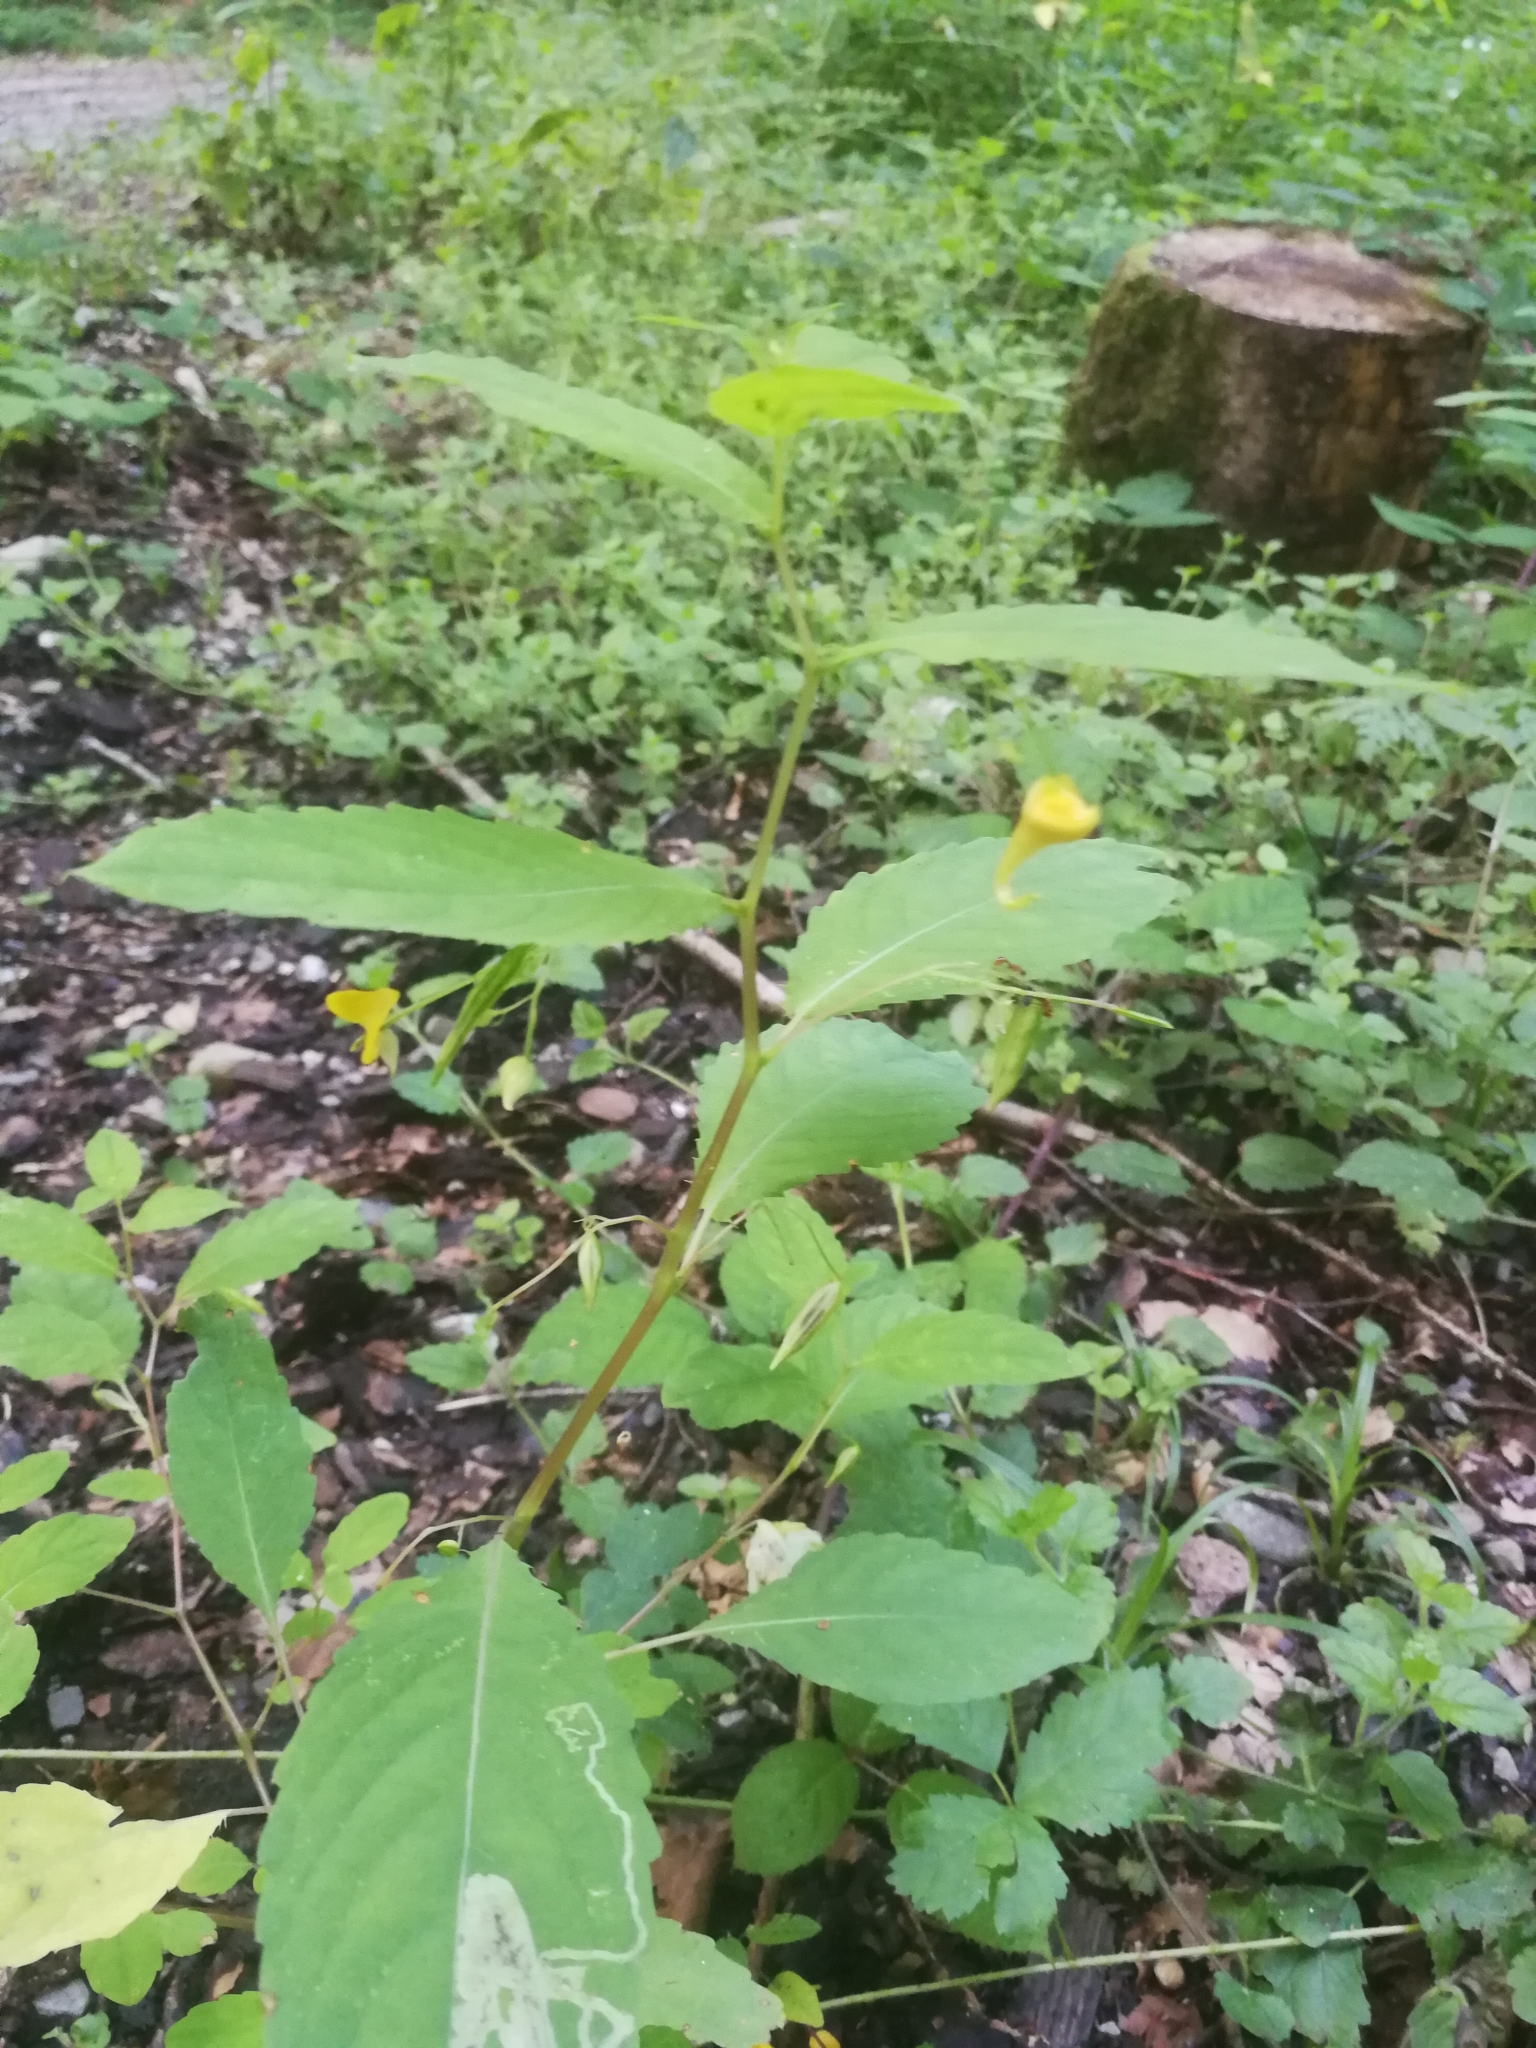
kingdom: Plantae
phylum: Tracheophyta
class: Magnoliopsida
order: Ericales
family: Balsaminaceae
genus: Impatiens
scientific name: Impatiens noli-tangere
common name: Touch-me-not balsam
